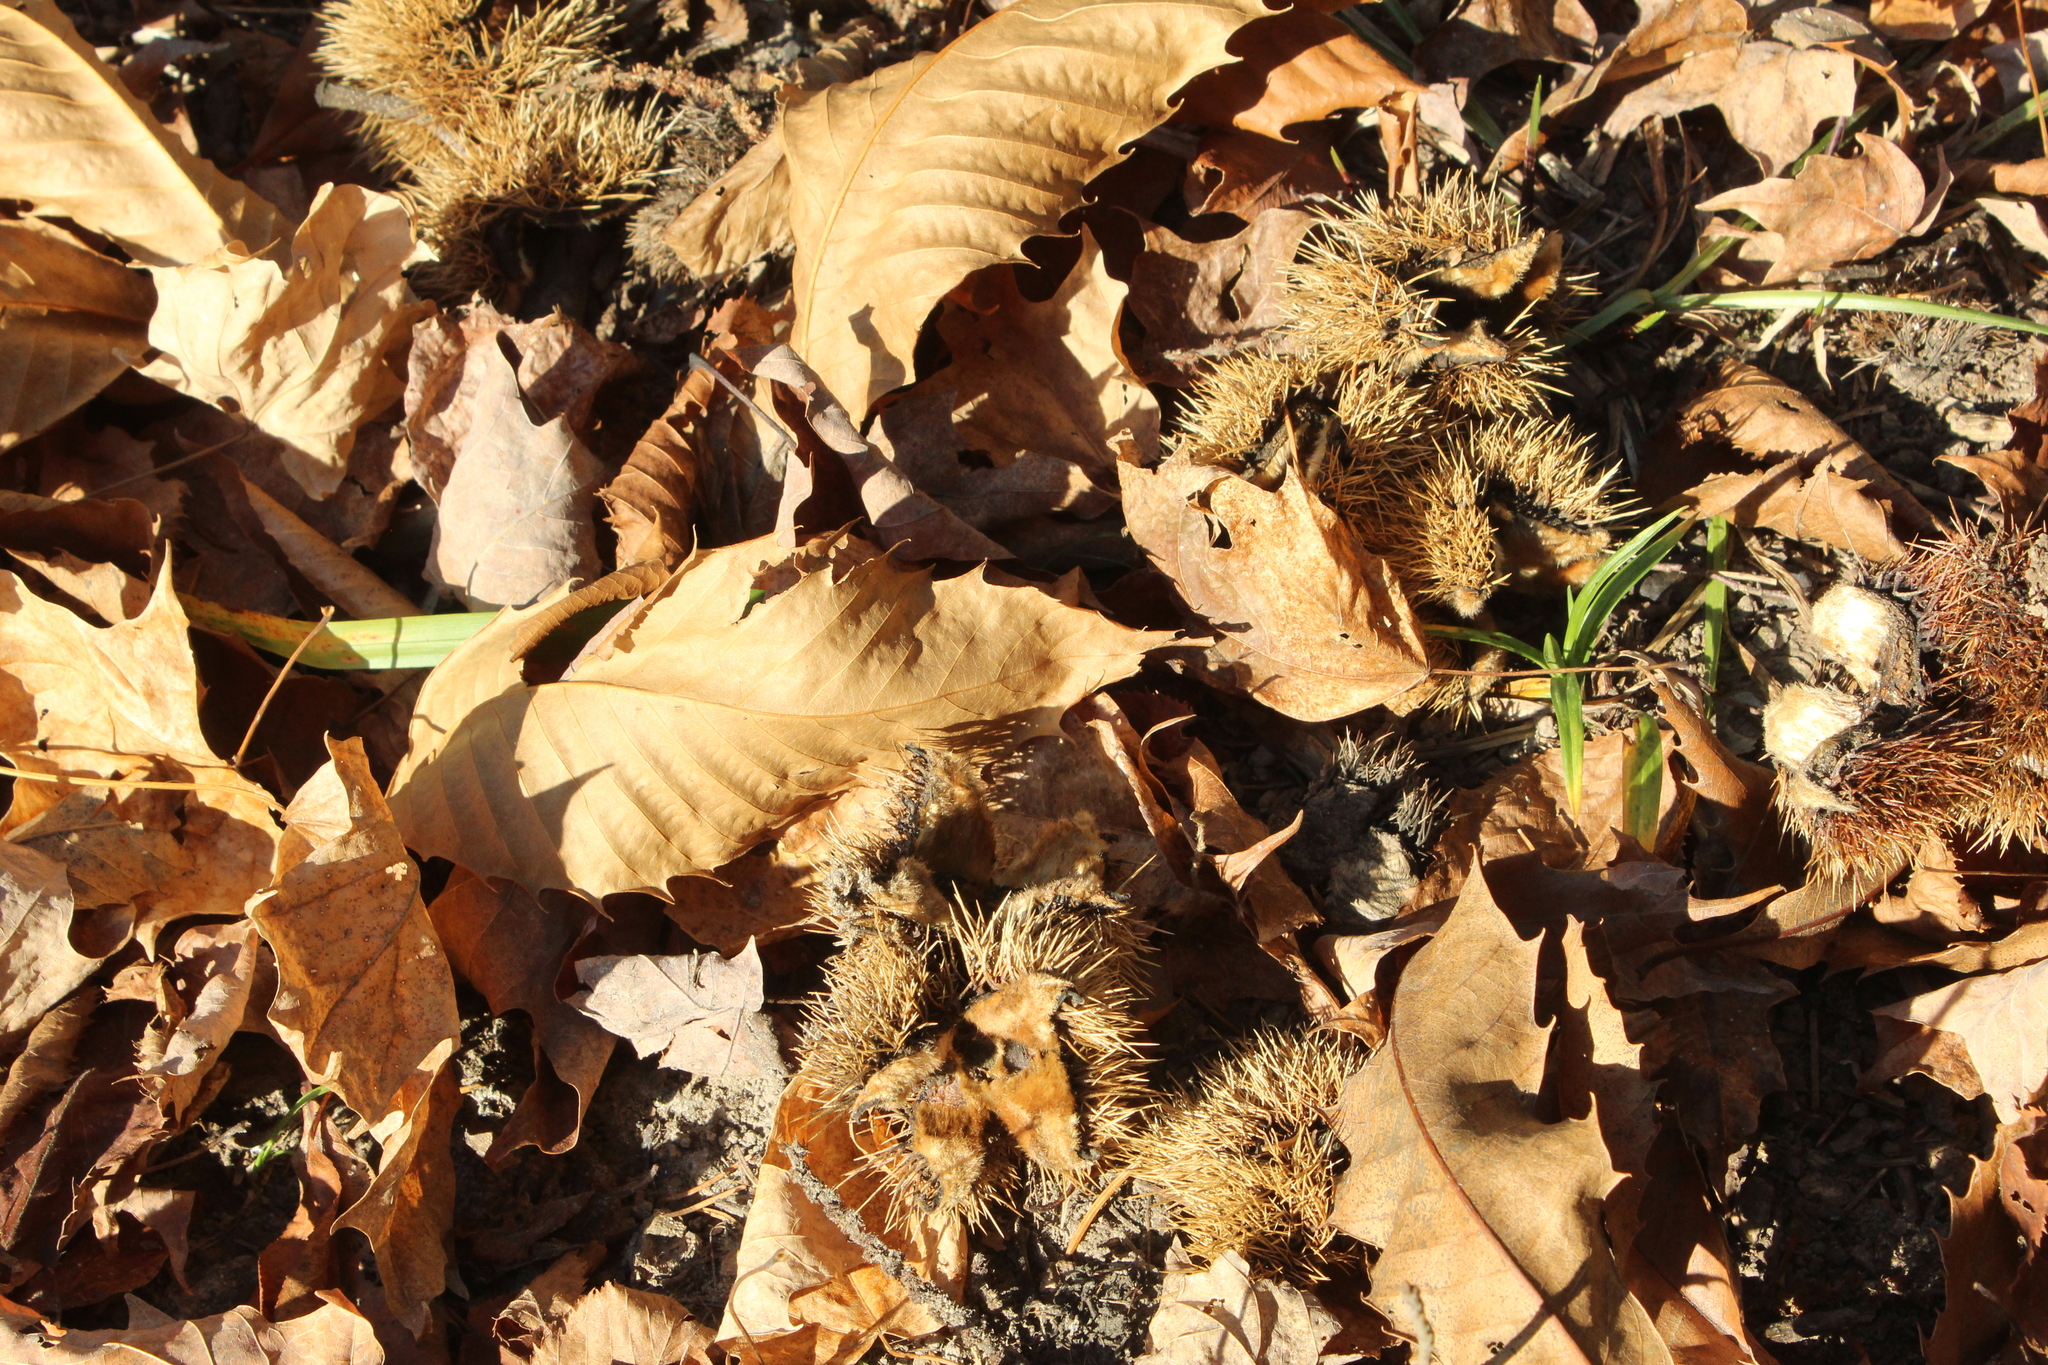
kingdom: Plantae
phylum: Tracheophyta
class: Magnoliopsida
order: Fagales
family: Fagaceae
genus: Castanea
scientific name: Castanea dentata
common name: American chestnut
